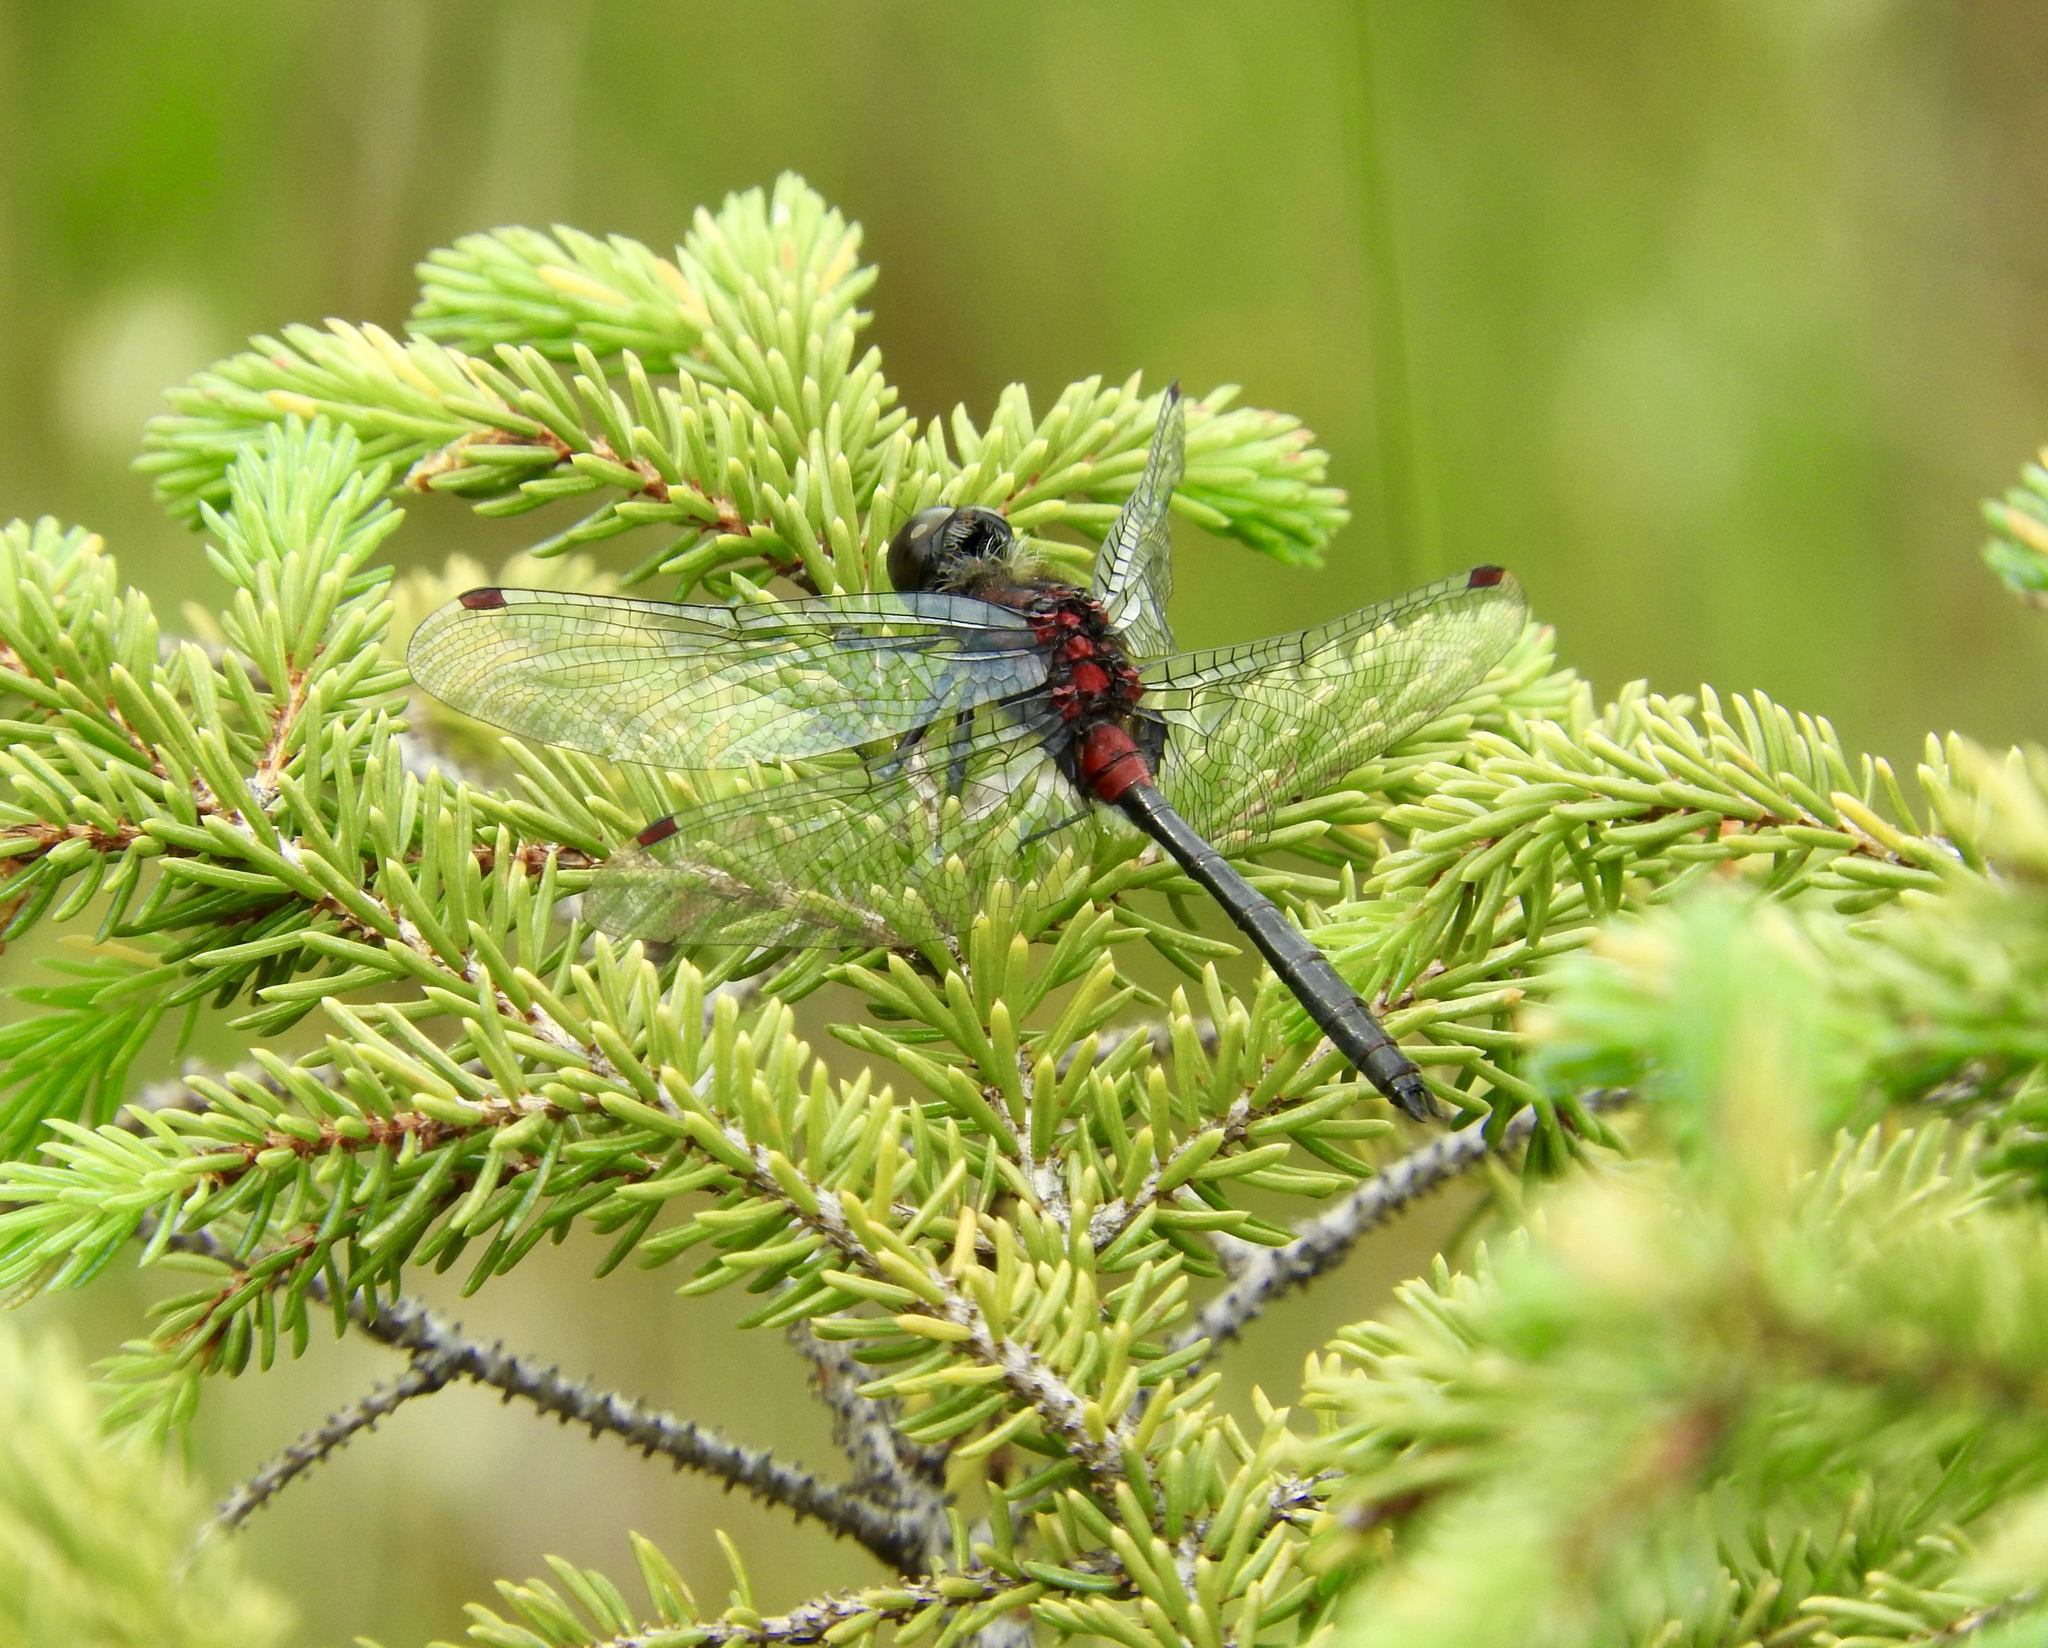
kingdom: Animalia
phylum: Arthropoda
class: Insecta
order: Odonata
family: Libellulidae
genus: Leucorrhinia
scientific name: Leucorrhinia glacialis
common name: Crimson-ringed whiteface
